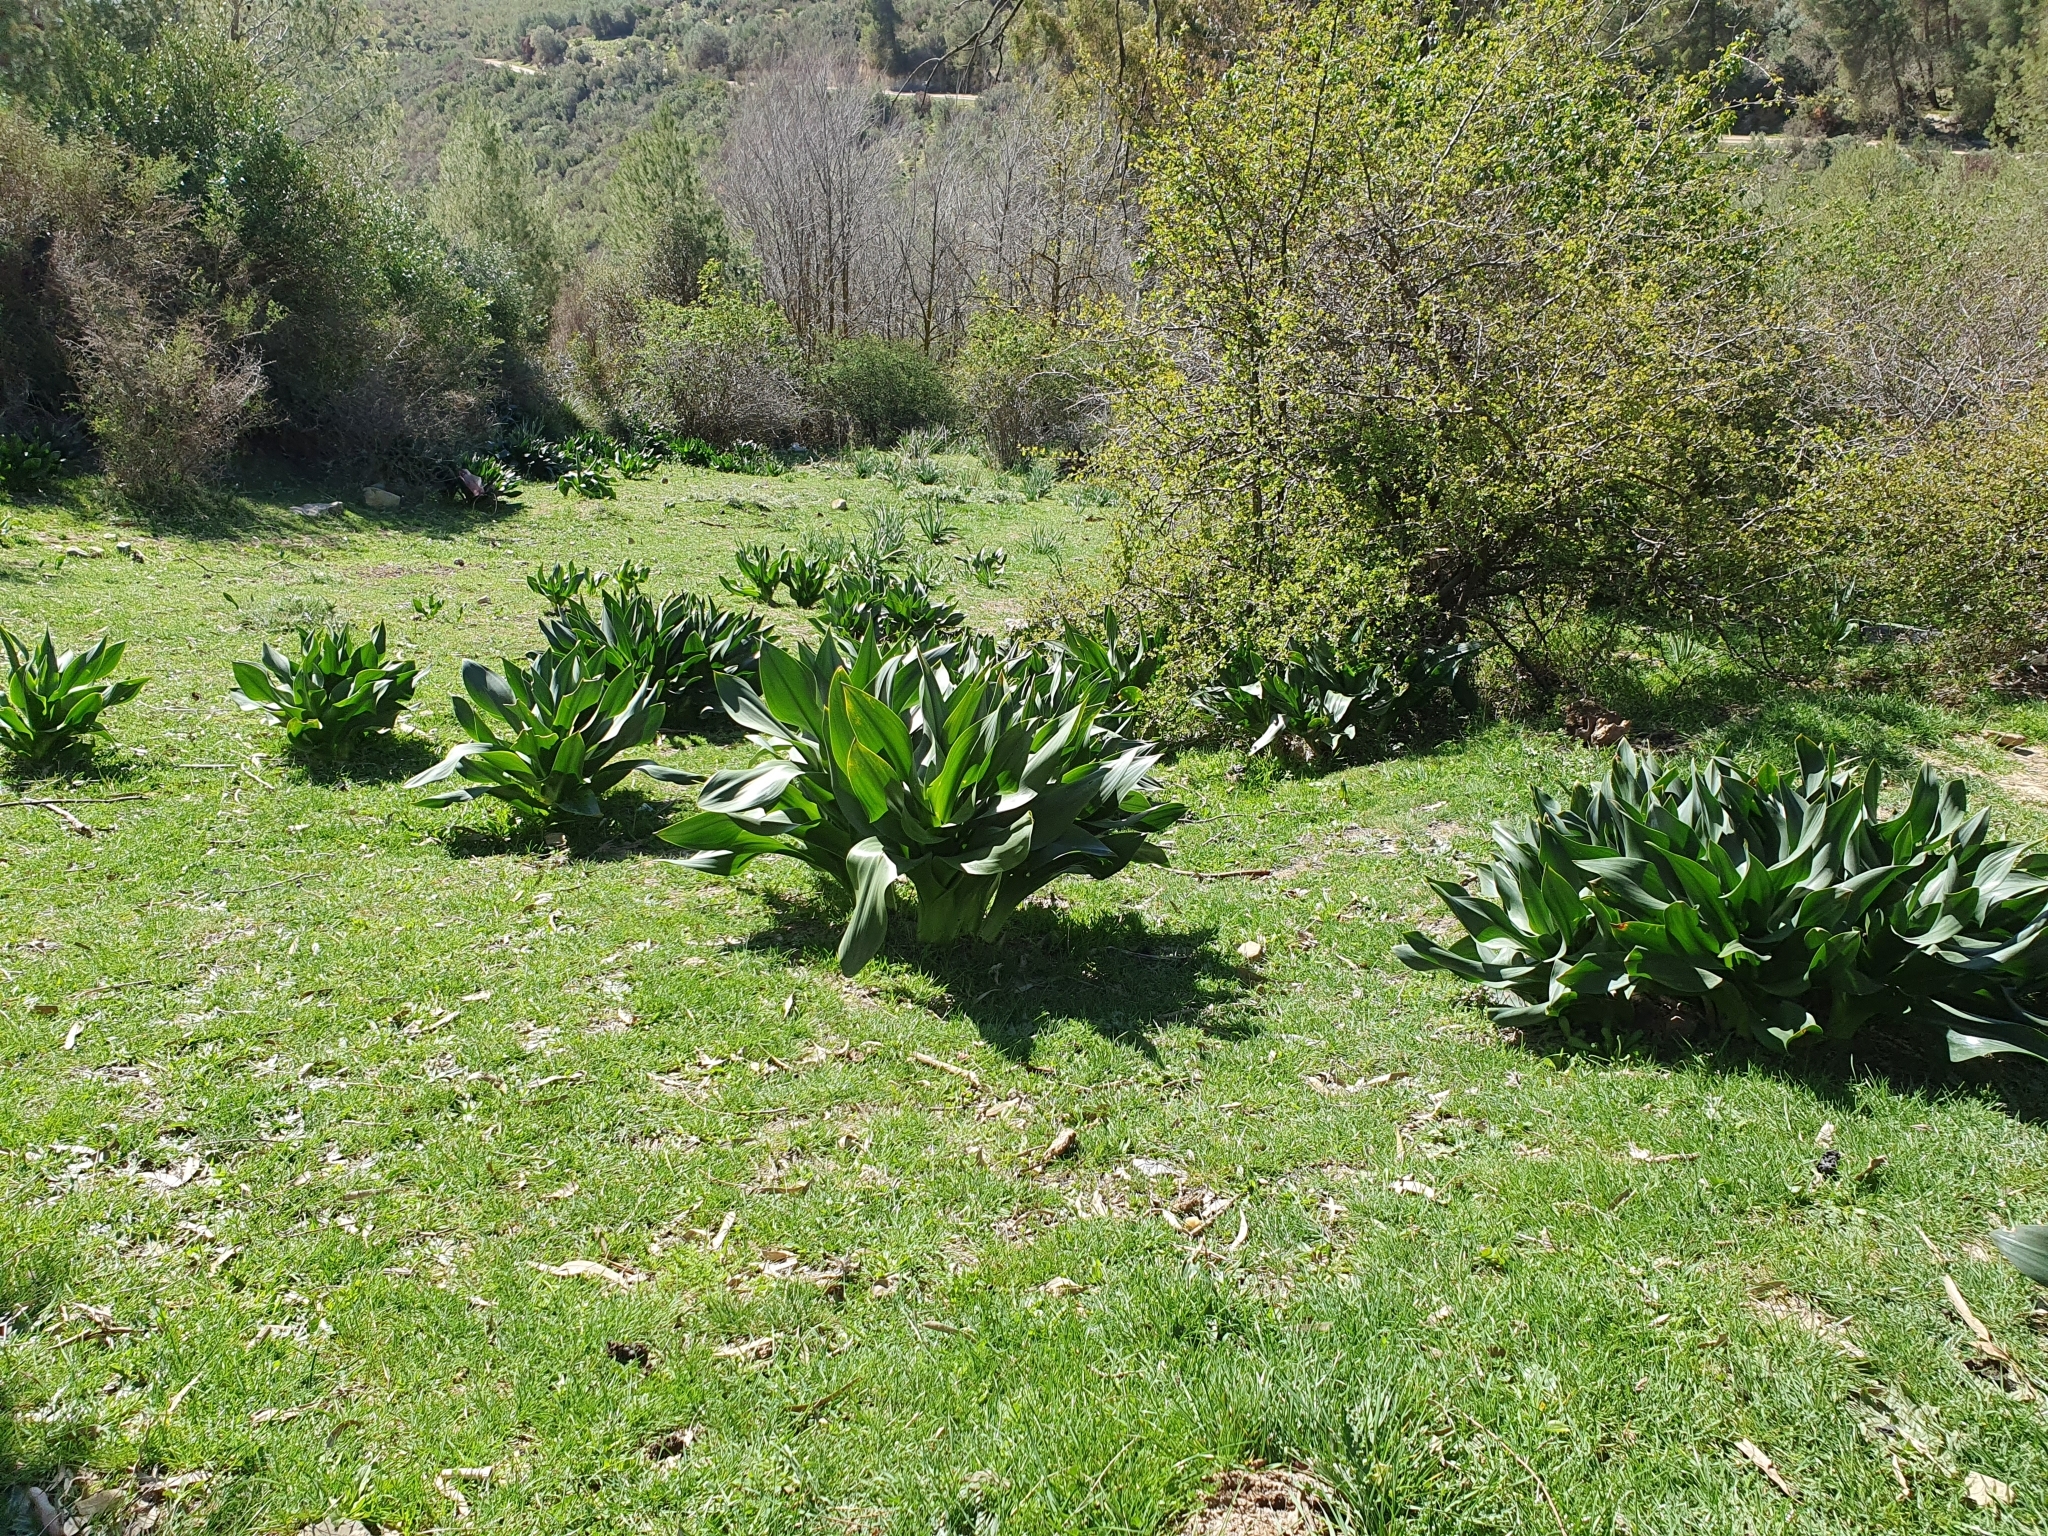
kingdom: Plantae
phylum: Tracheophyta
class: Liliopsida
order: Asparagales
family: Asparagaceae
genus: Drimia
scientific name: Drimia numidica
